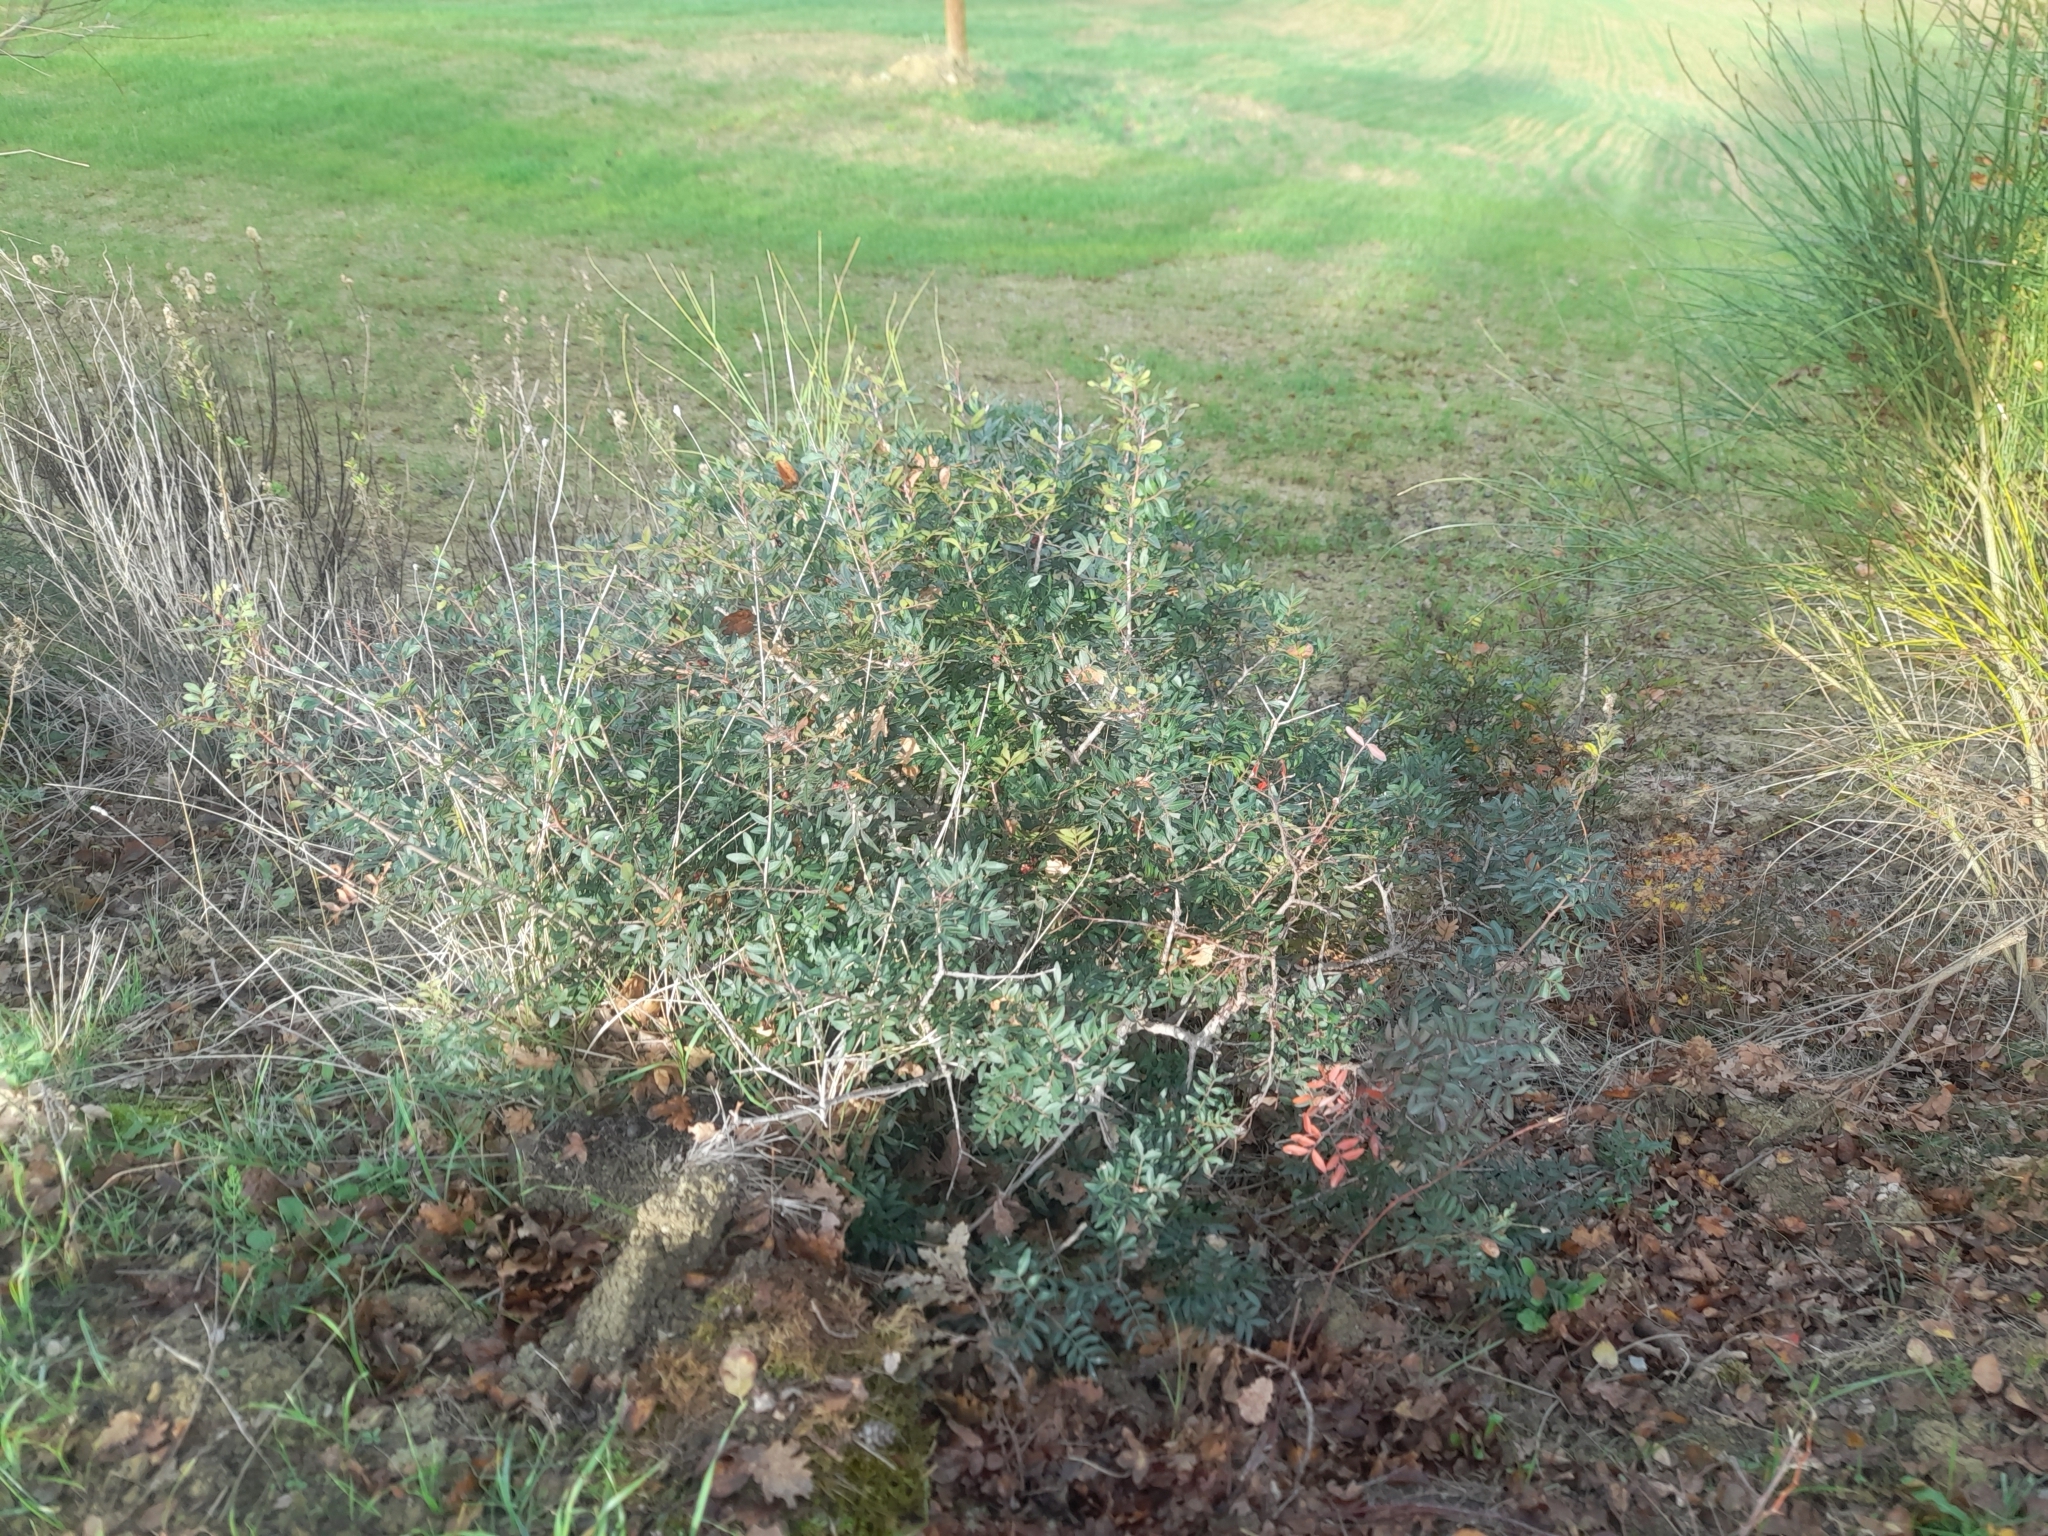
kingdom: Plantae
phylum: Tracheophyta
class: Magnoliopsida
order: Sapindales
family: Anacardiaceae
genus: Pistacia
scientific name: Pistacia lentiscus
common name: Lentisk
